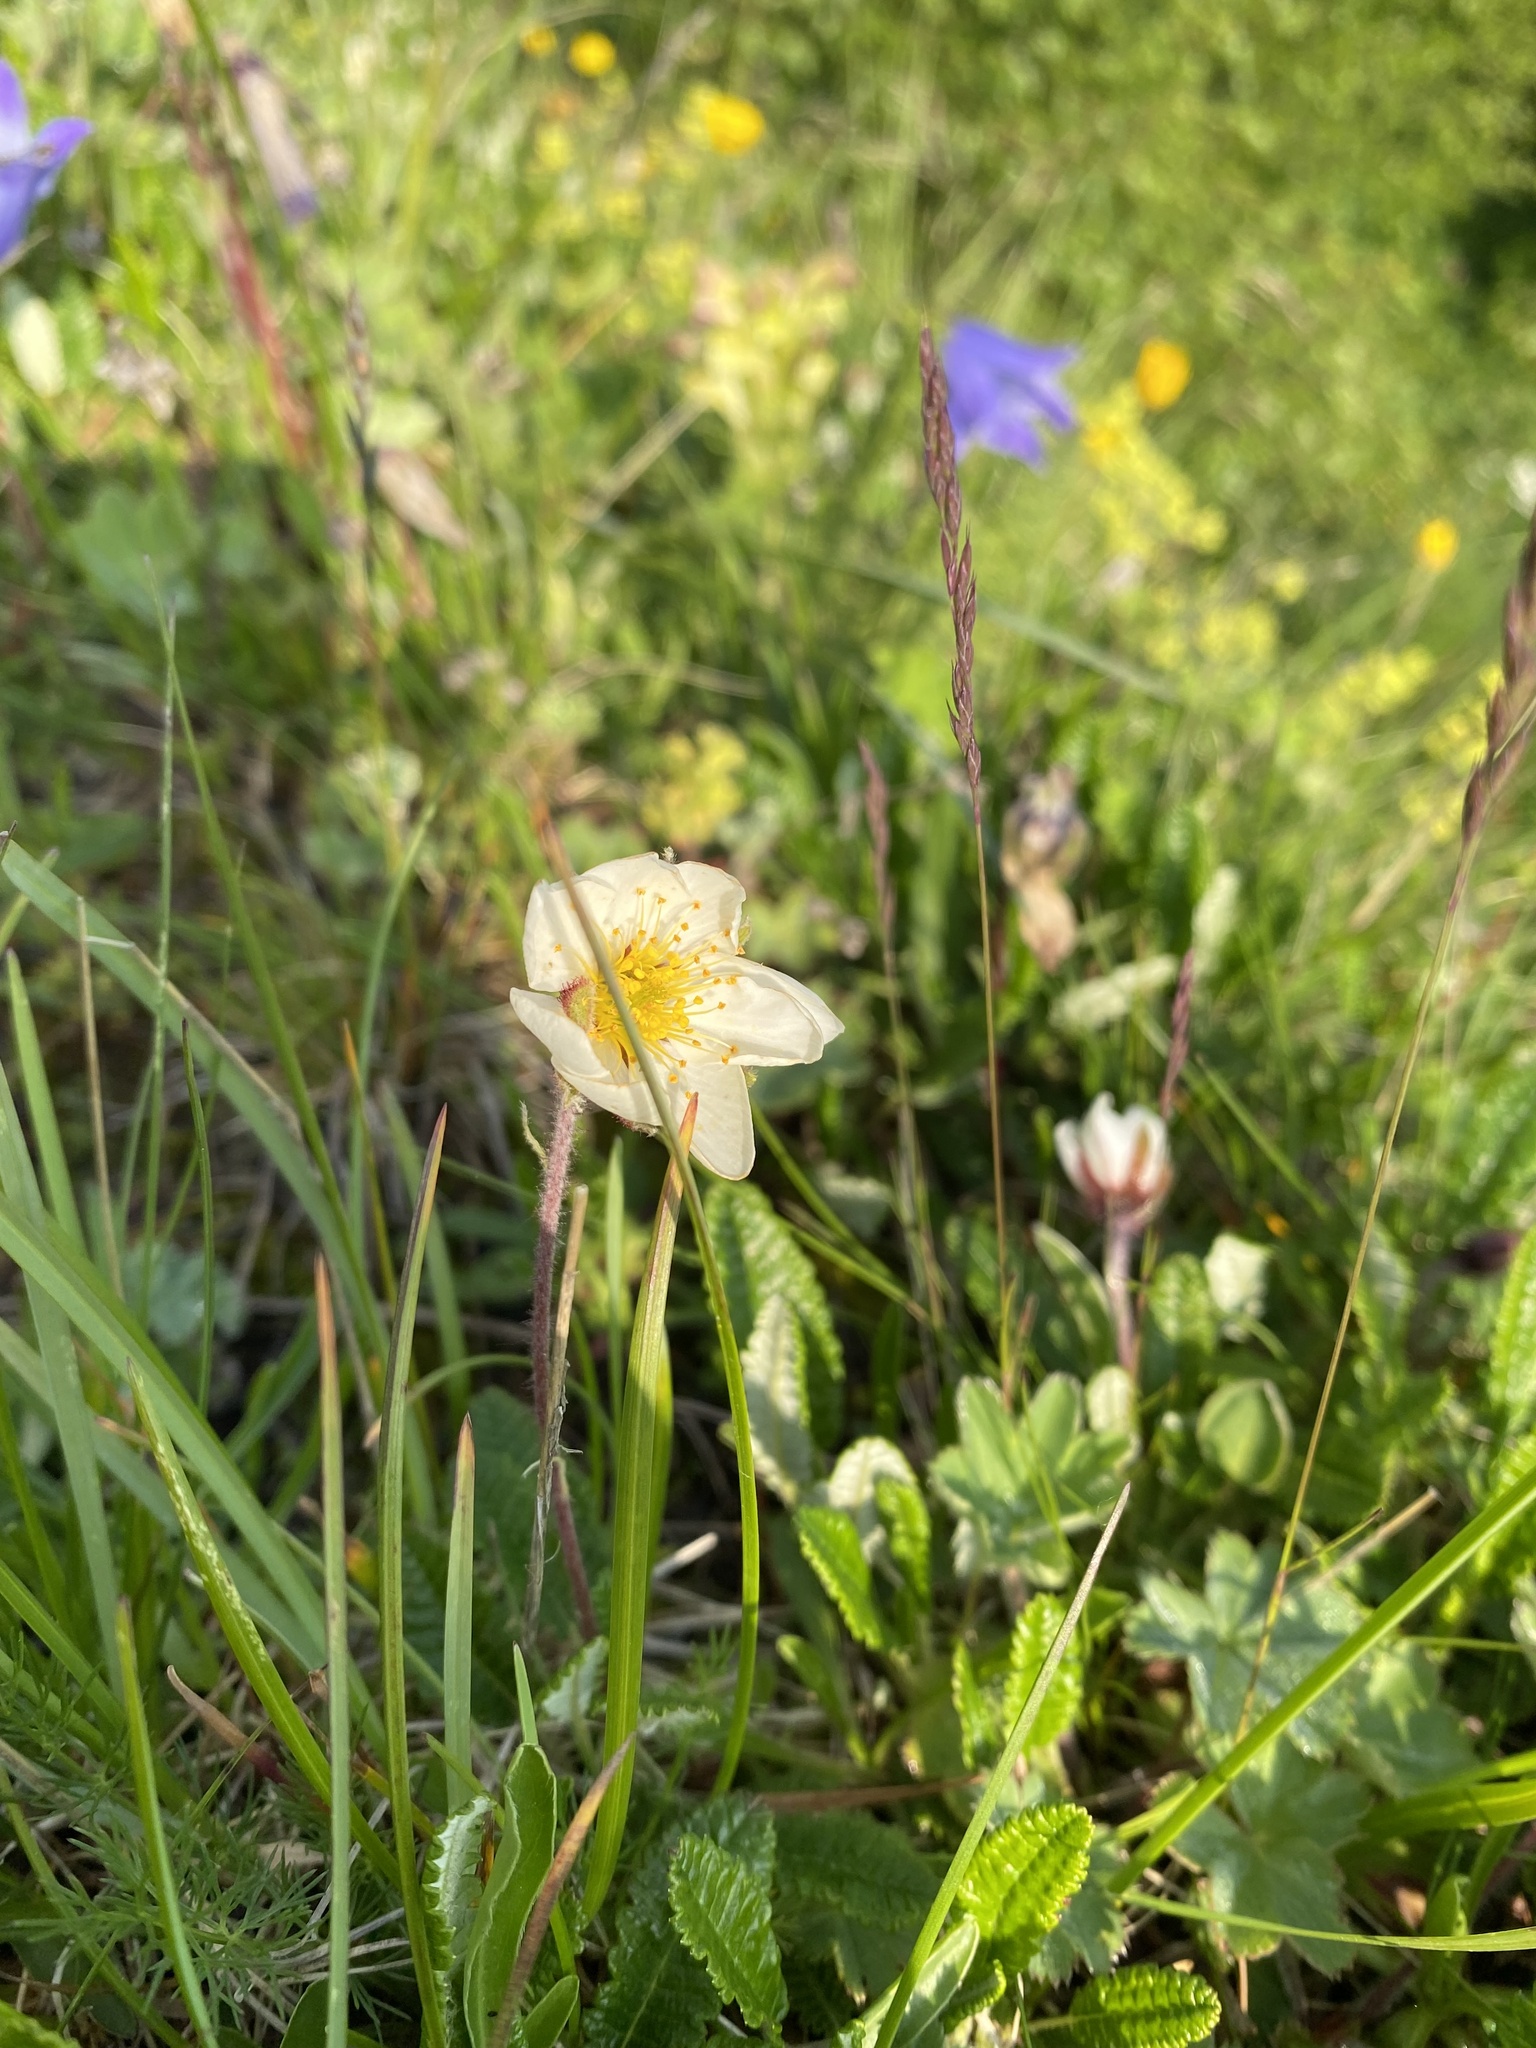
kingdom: Plantae
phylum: Tracheophyta
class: Magnoliopsida
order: Rosales
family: Rosaceae
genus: Dryas
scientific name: Dryas octopetala
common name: Eight-petal mountain-avens
